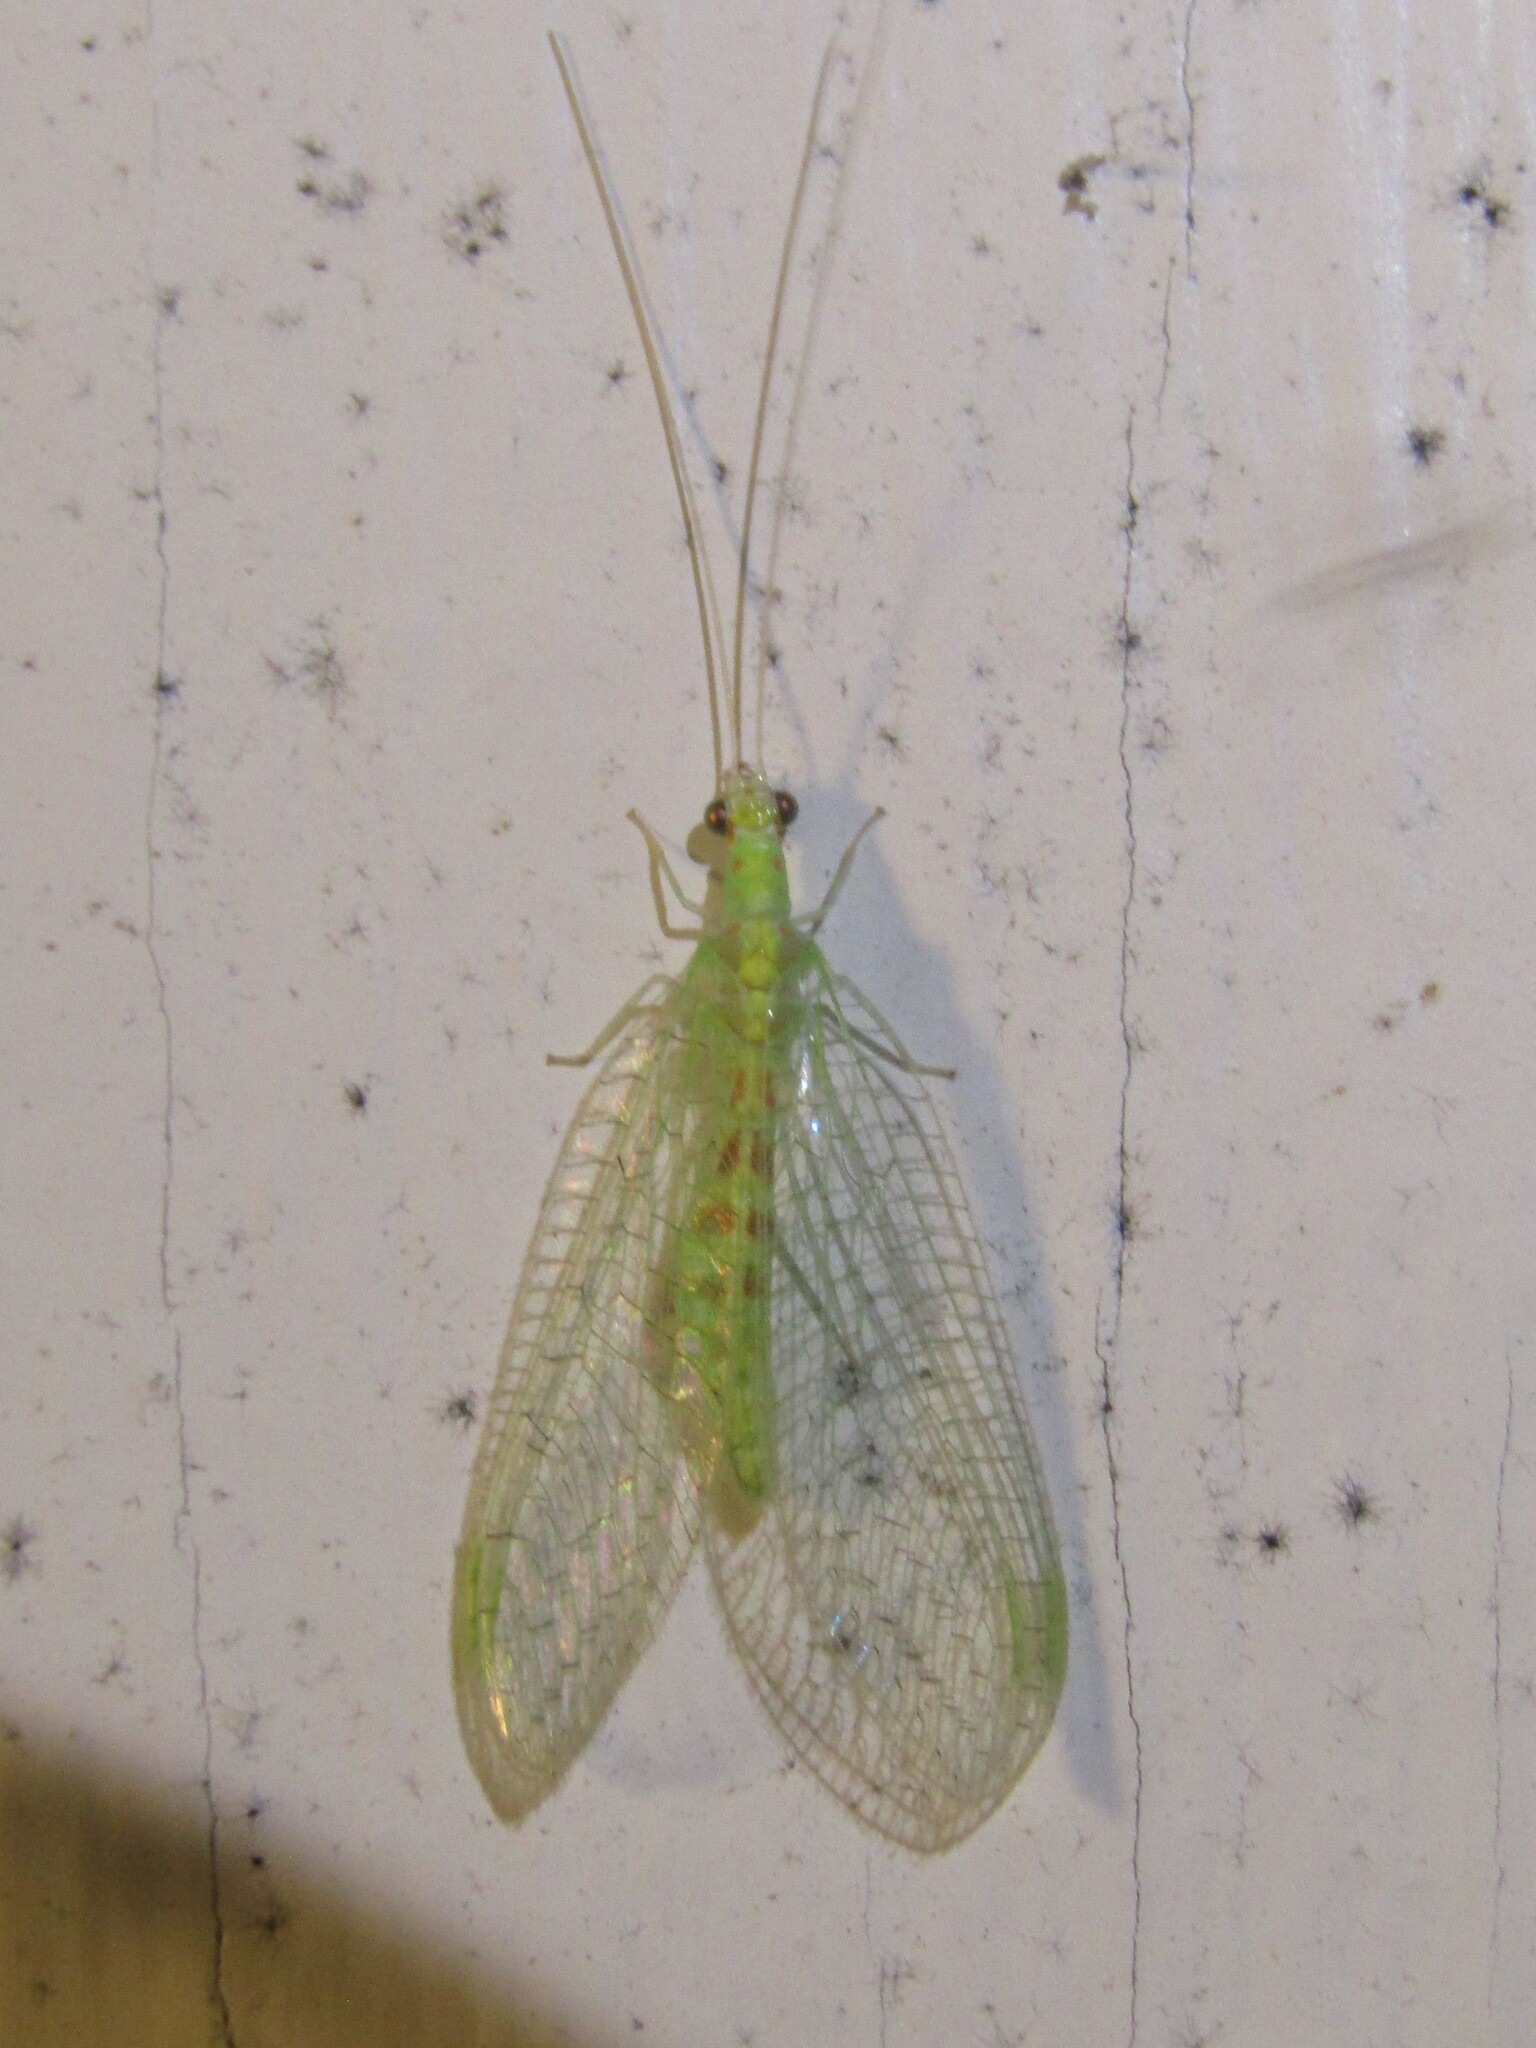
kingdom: Animalia
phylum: Arthropoda
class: Insecta
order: Neuroptera
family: Chrysopidae
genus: Chrysopa
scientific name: Chrysopa quadripunctata
